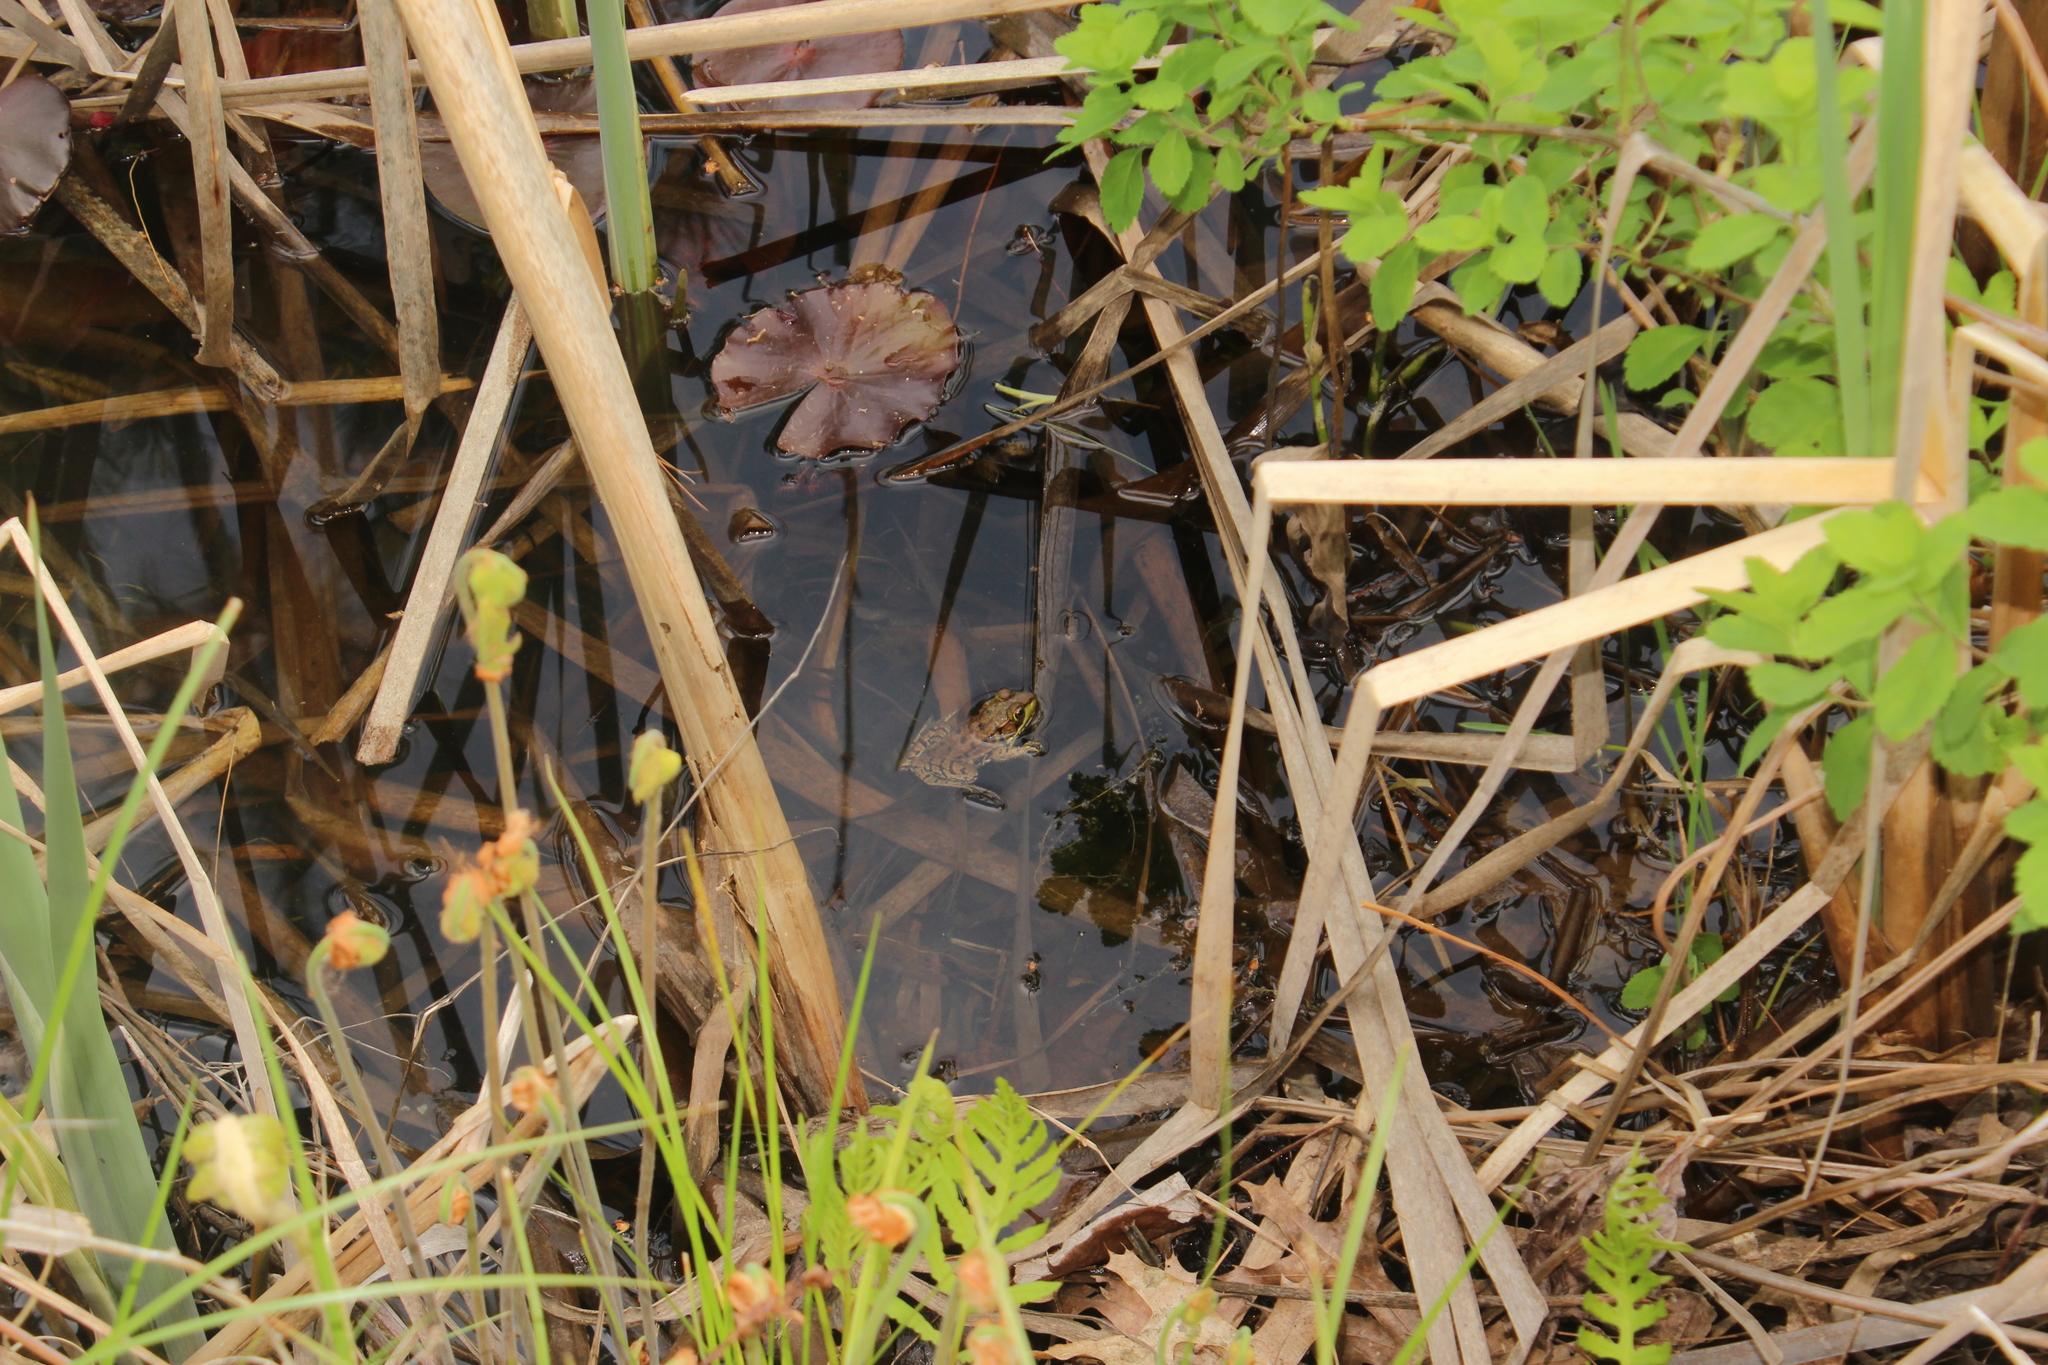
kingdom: Animalia
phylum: Chordata
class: Amphibia
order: Anura
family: Ranidae
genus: Lithobates
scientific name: Lithobates clamitans
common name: Green frog
